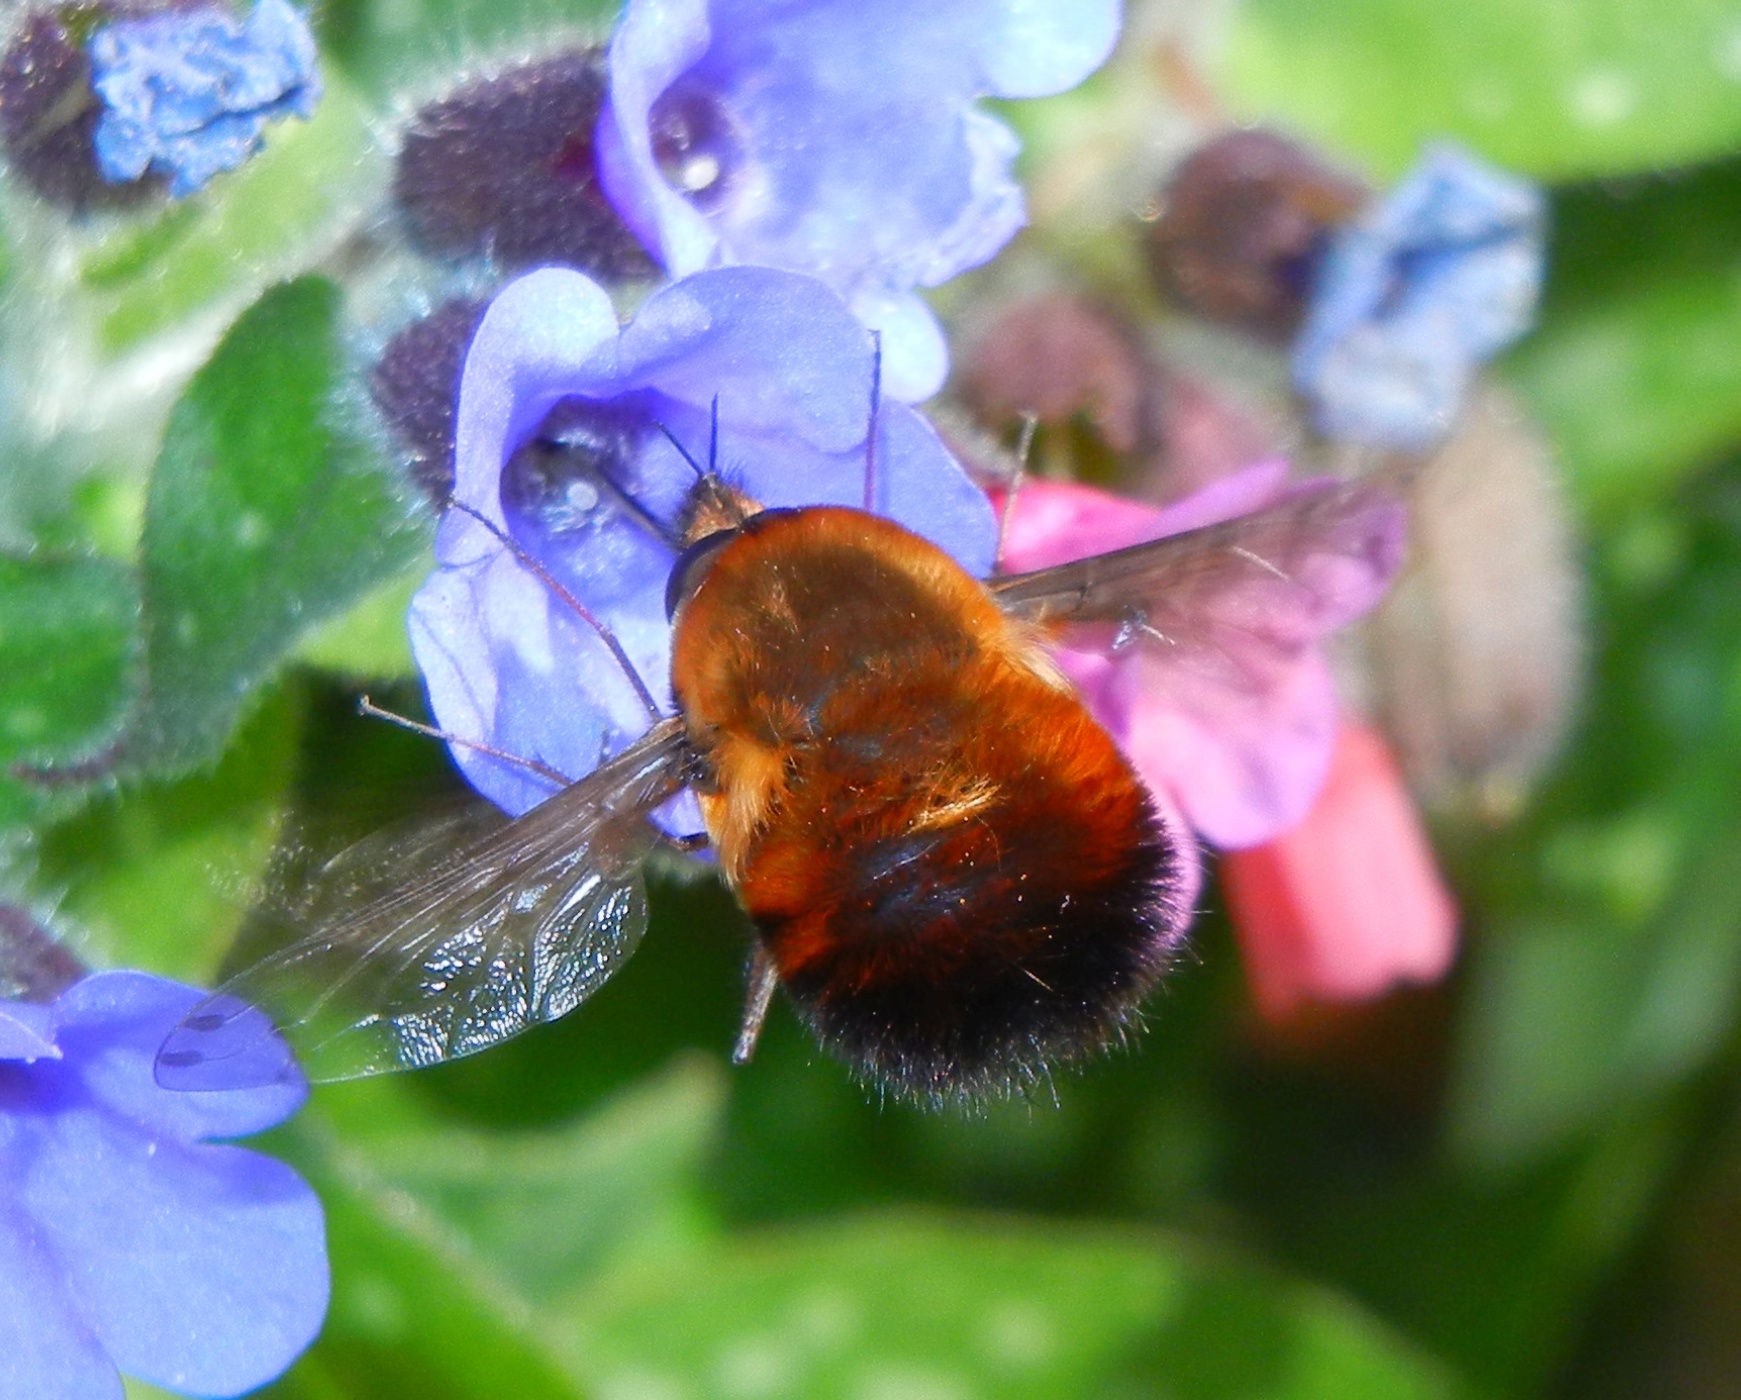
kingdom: Animalia
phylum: Arthropoda
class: Insecta
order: Diptera
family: Bombyliidae
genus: Bombylius
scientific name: Bombylius discolor
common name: Dotted bee-fly
